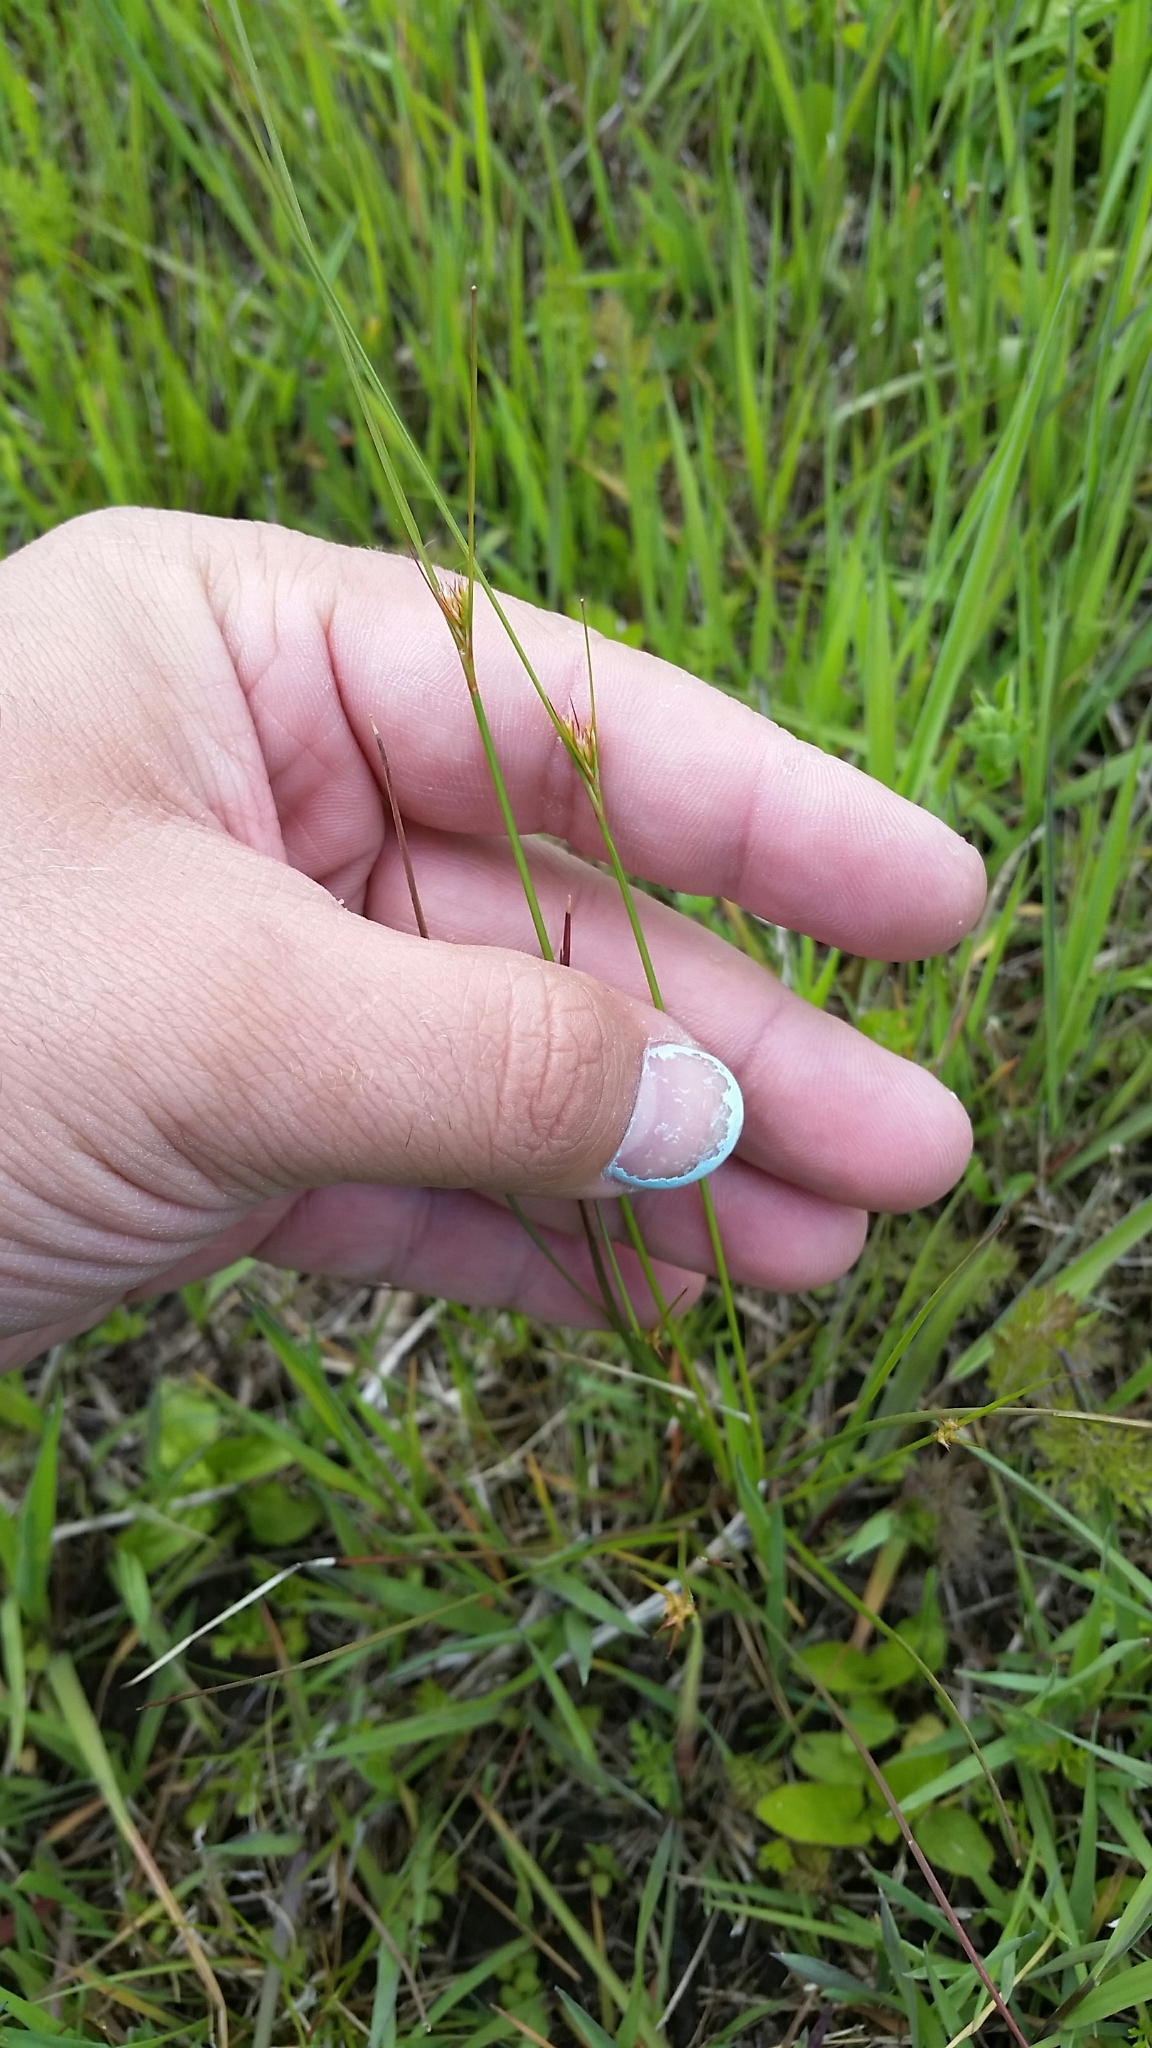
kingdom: Plantae
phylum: Tracheophyta
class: Liliopsida
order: Poales
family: Juncaceae
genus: Juncus
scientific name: Juncus tenuis
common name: Slender rush
